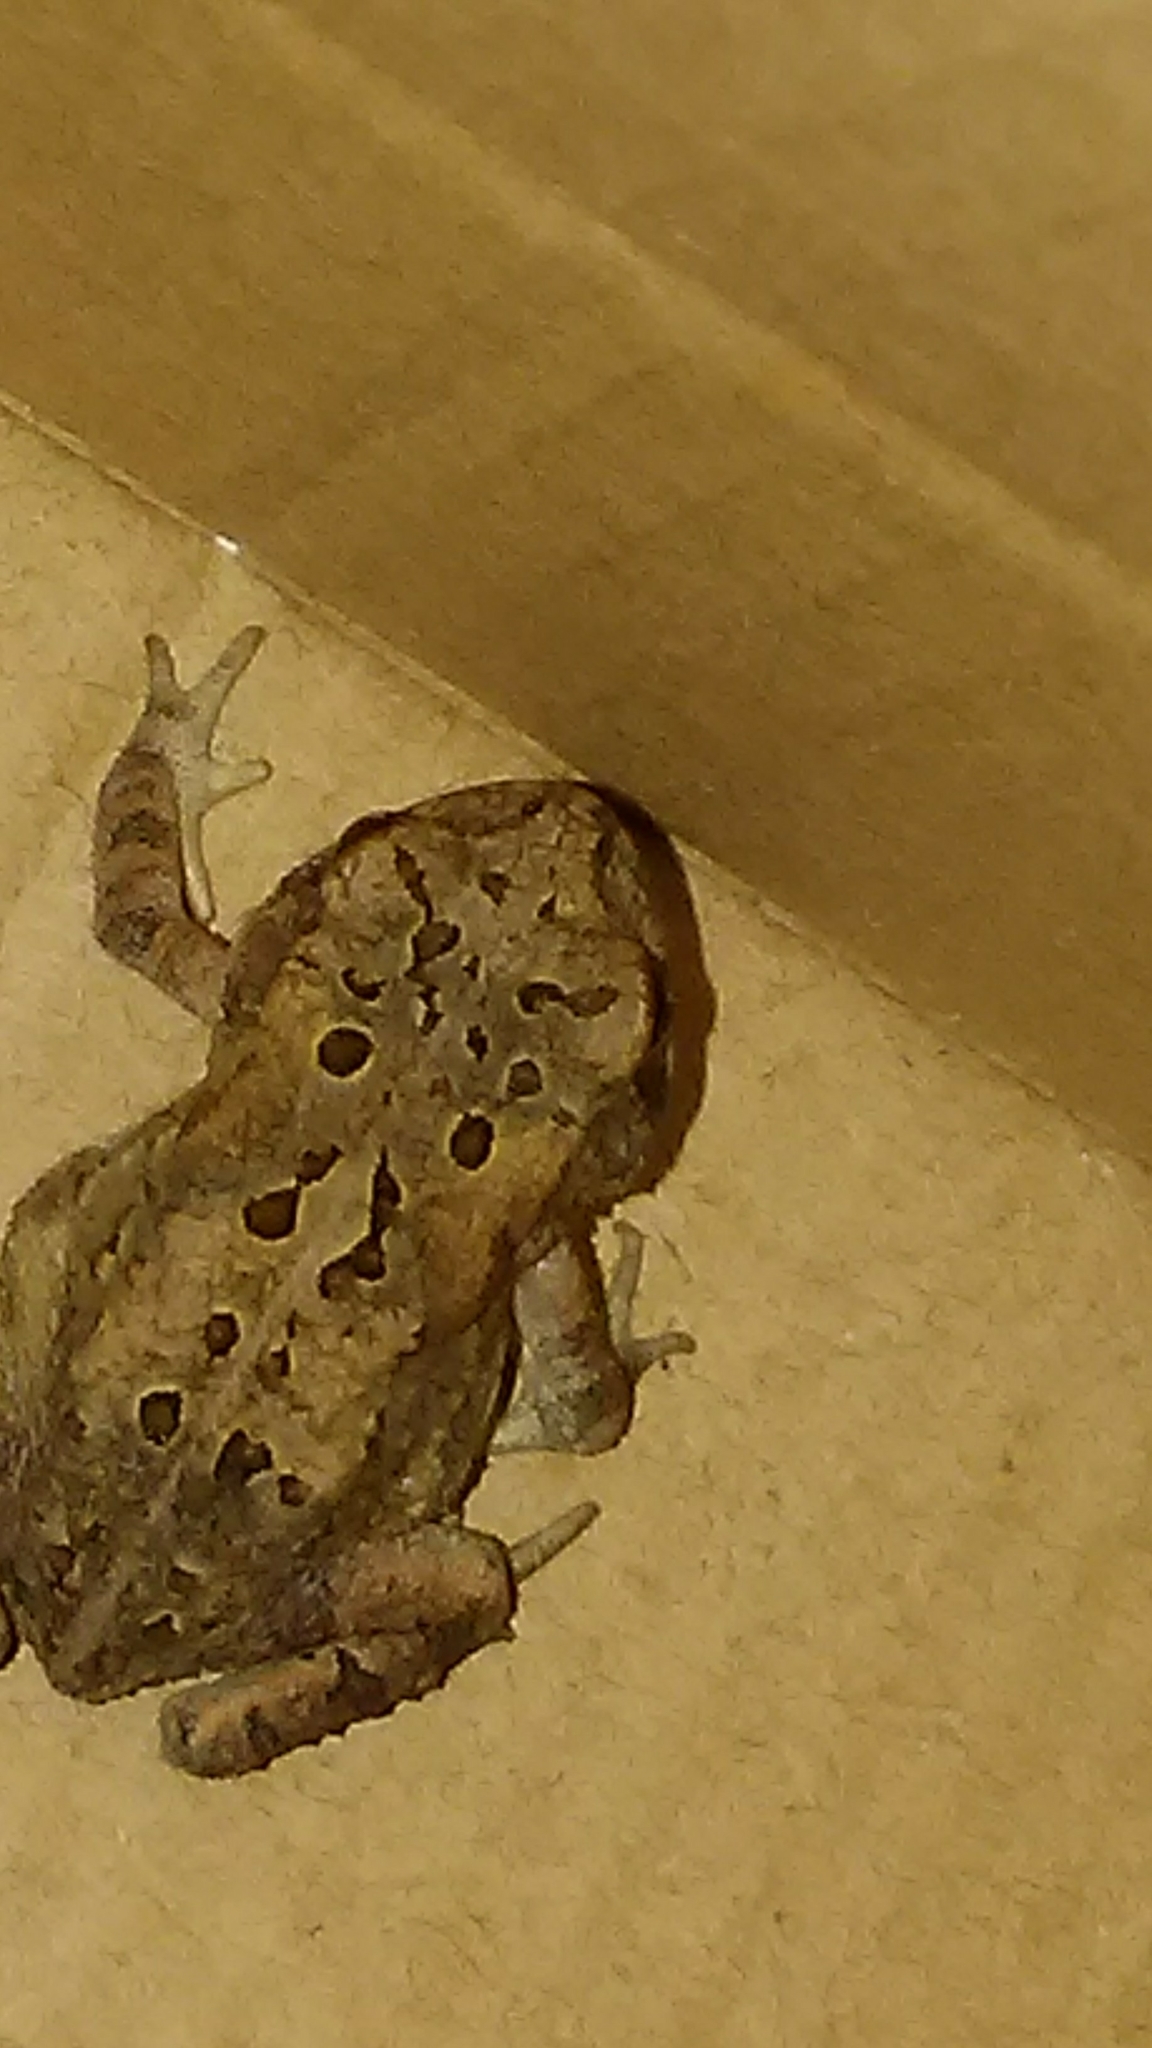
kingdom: Animalia
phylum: Chordata
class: Amphibia
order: Anura
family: Bufonidae
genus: Anaxyrus
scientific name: Anaxyrus terrestris
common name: Southern toad
